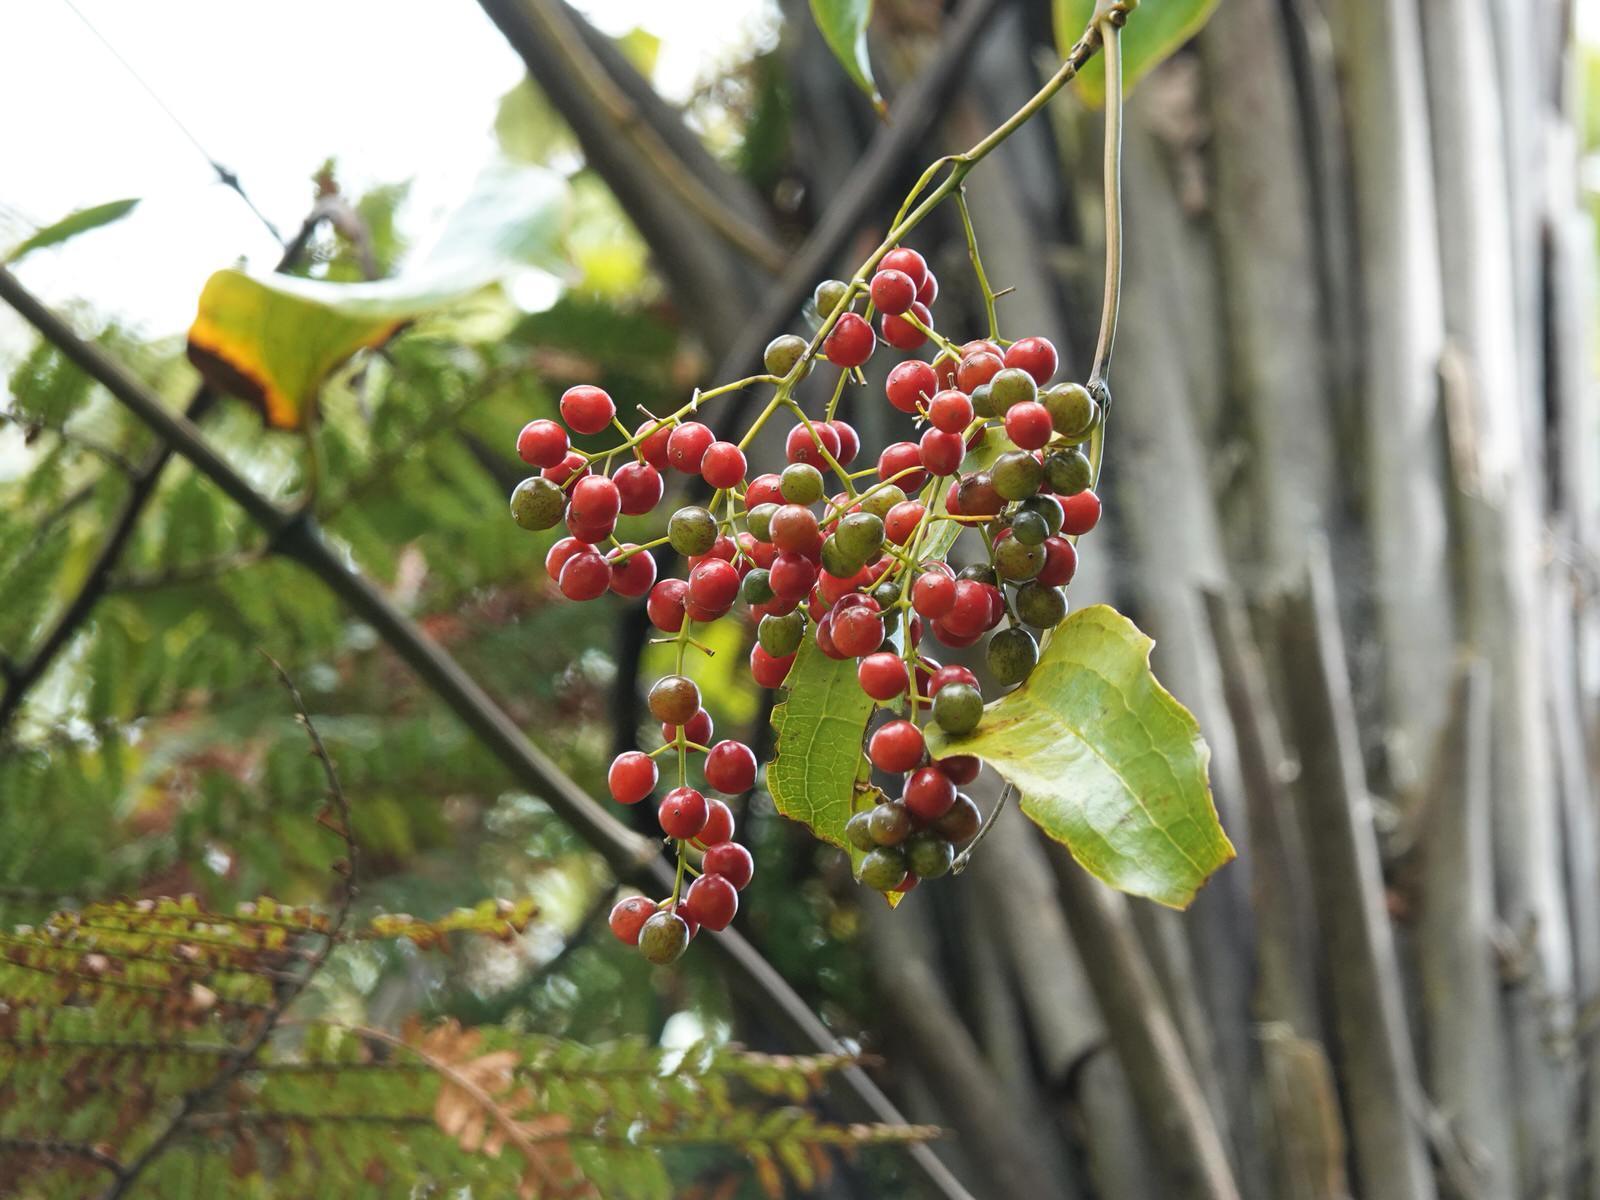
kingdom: Plantae
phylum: Tracheophyta
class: Liliopsida
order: Liliales
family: Ripogonaceae
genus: Ripogonum
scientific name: Ripogonum scandens
